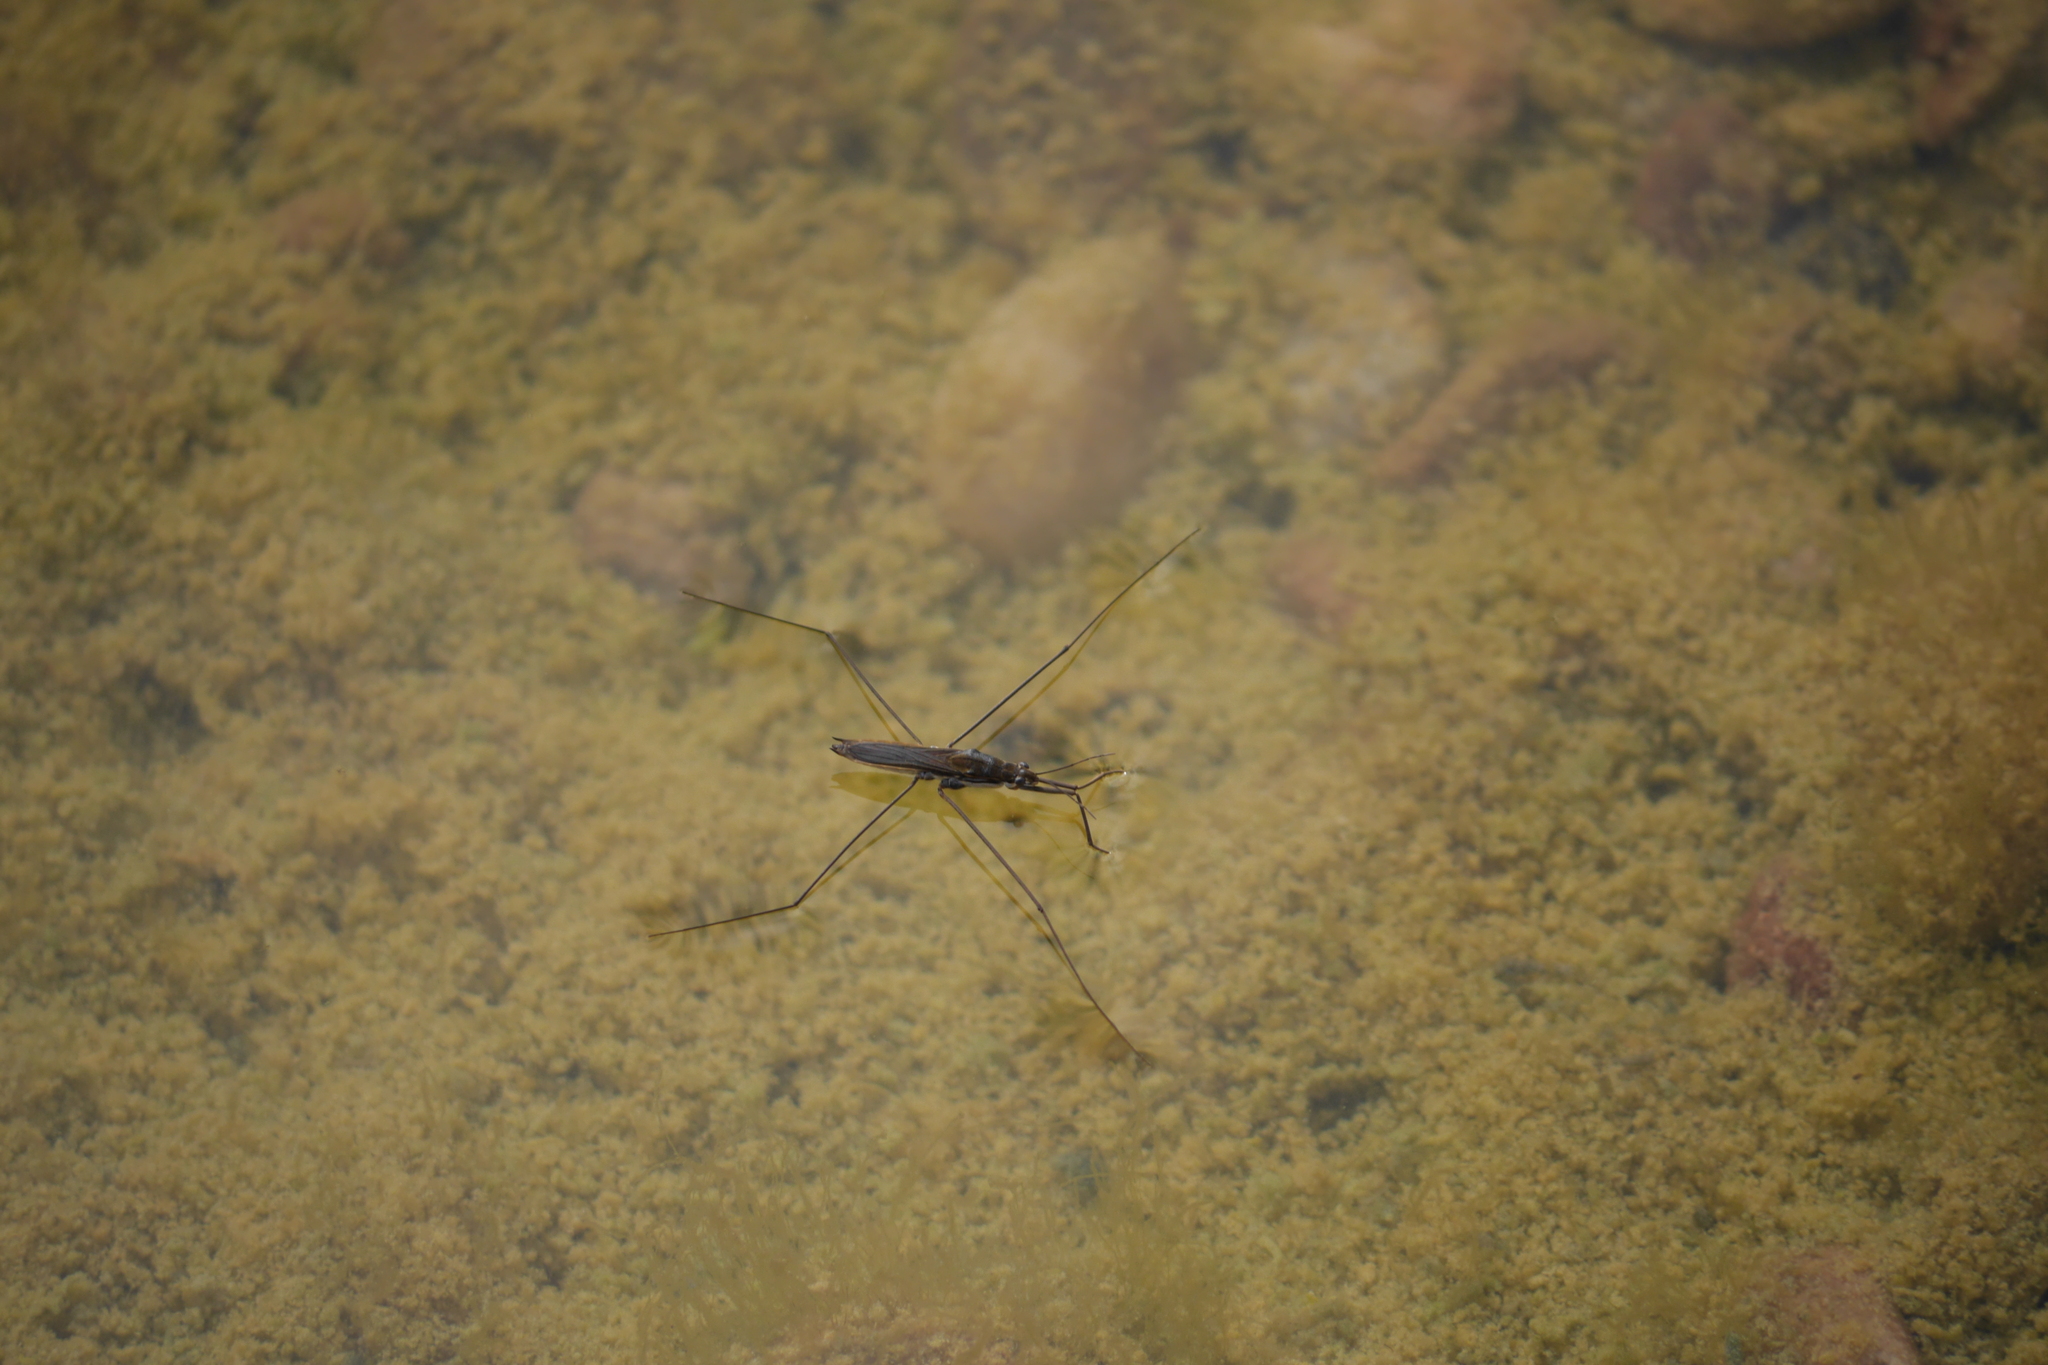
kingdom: Animalia
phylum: Arthropoda
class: Insecta
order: Hemiptera
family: Gerridae
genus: Aquarius
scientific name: Aquarius paludum
